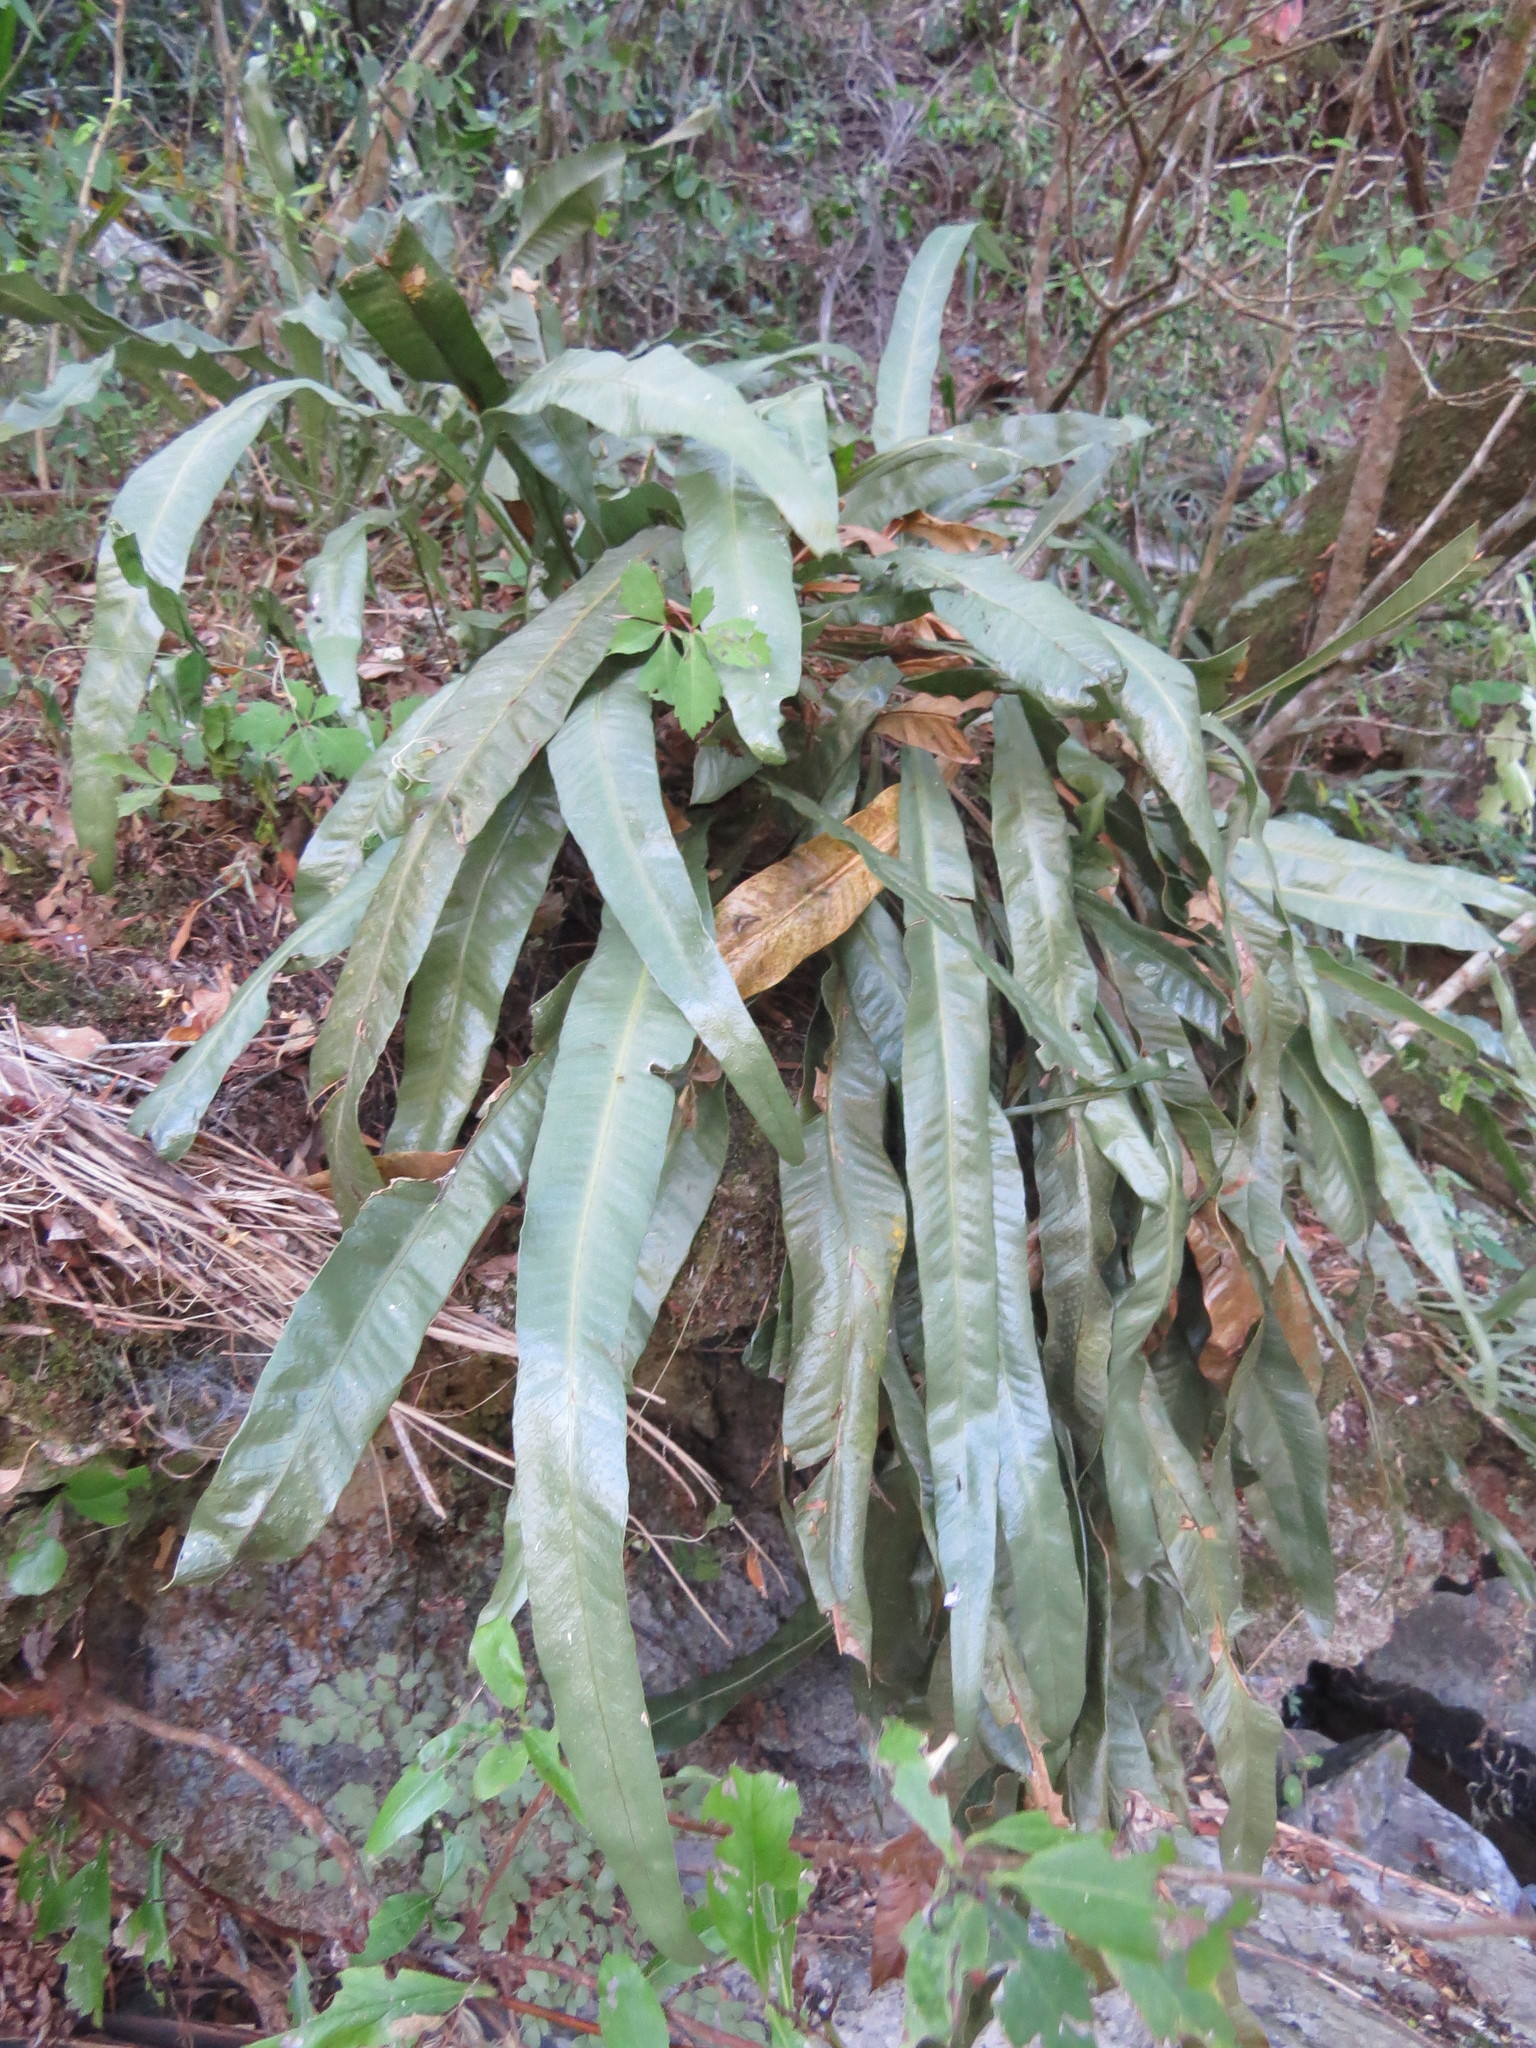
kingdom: Plantae
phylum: Tracheophyta
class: Polypodiopsida
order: Polypodiales
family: Polypodiaceae
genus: Campyloneurum
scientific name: Campyloneurum nitidum
